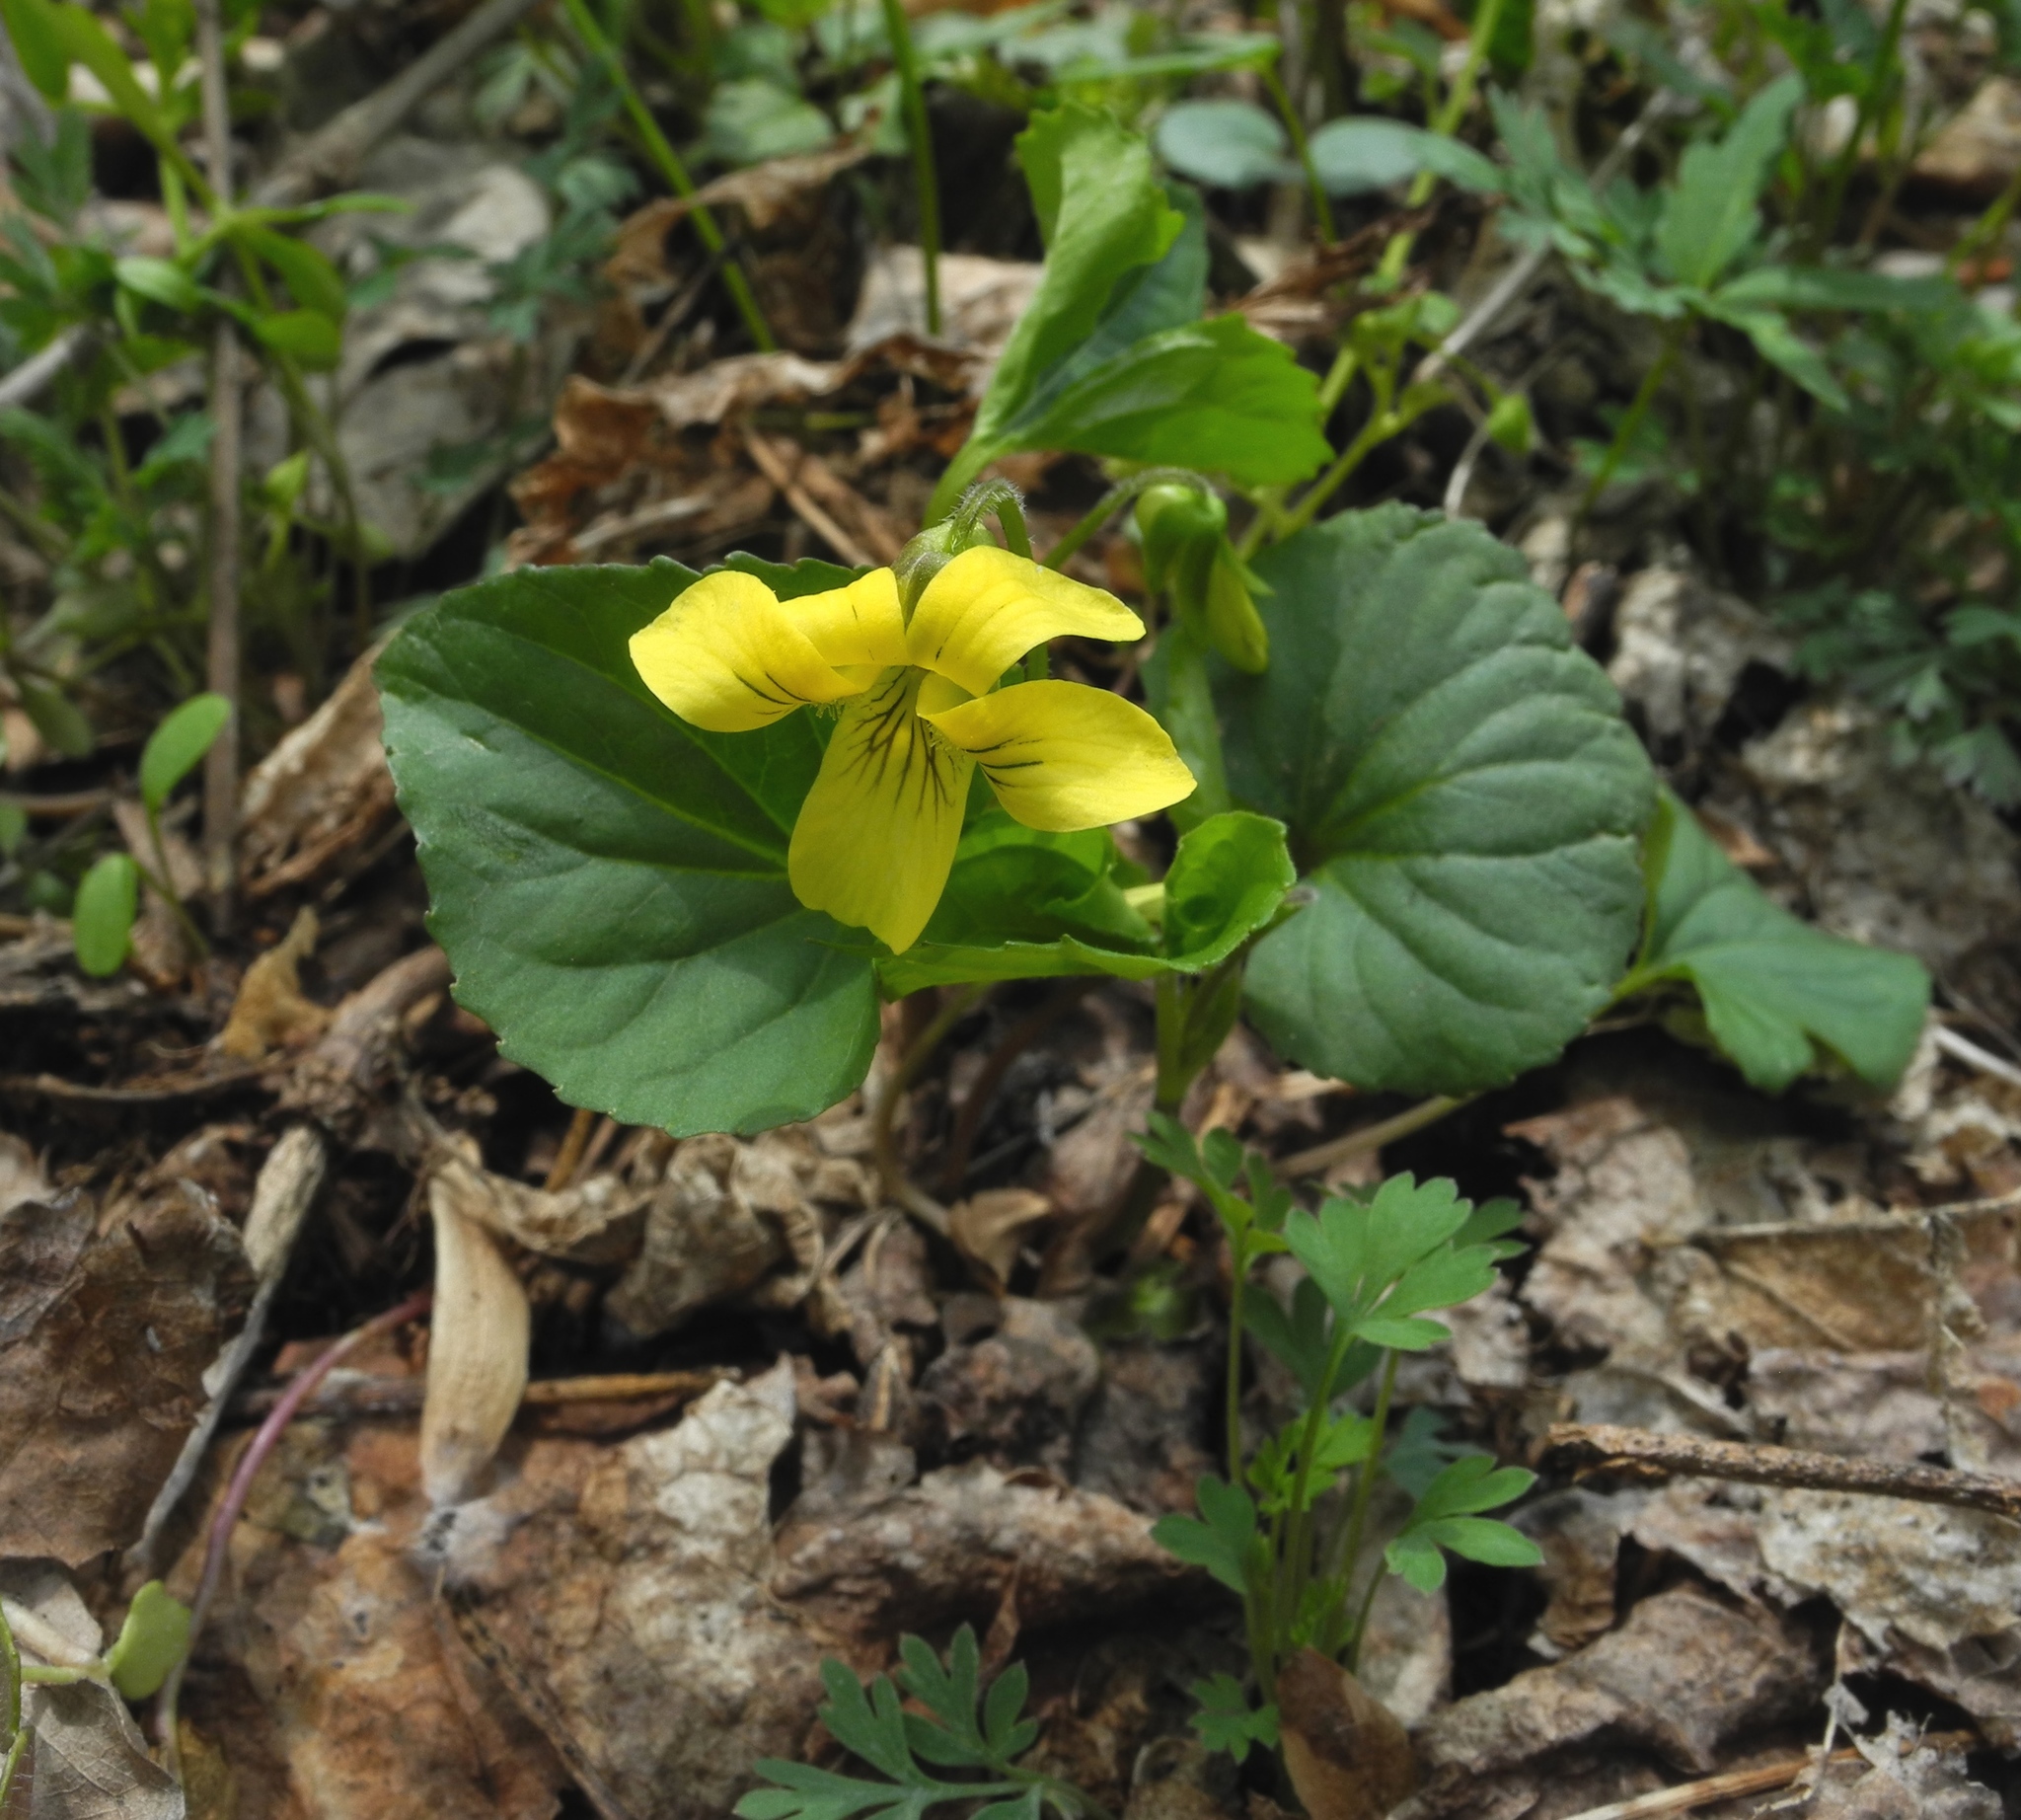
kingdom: Plantae
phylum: Tracheophyta
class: Magnoliopsida
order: Malpighiales
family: Violaceae
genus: Viola
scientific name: Viola eriocarpa
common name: Smooth yellow violet
